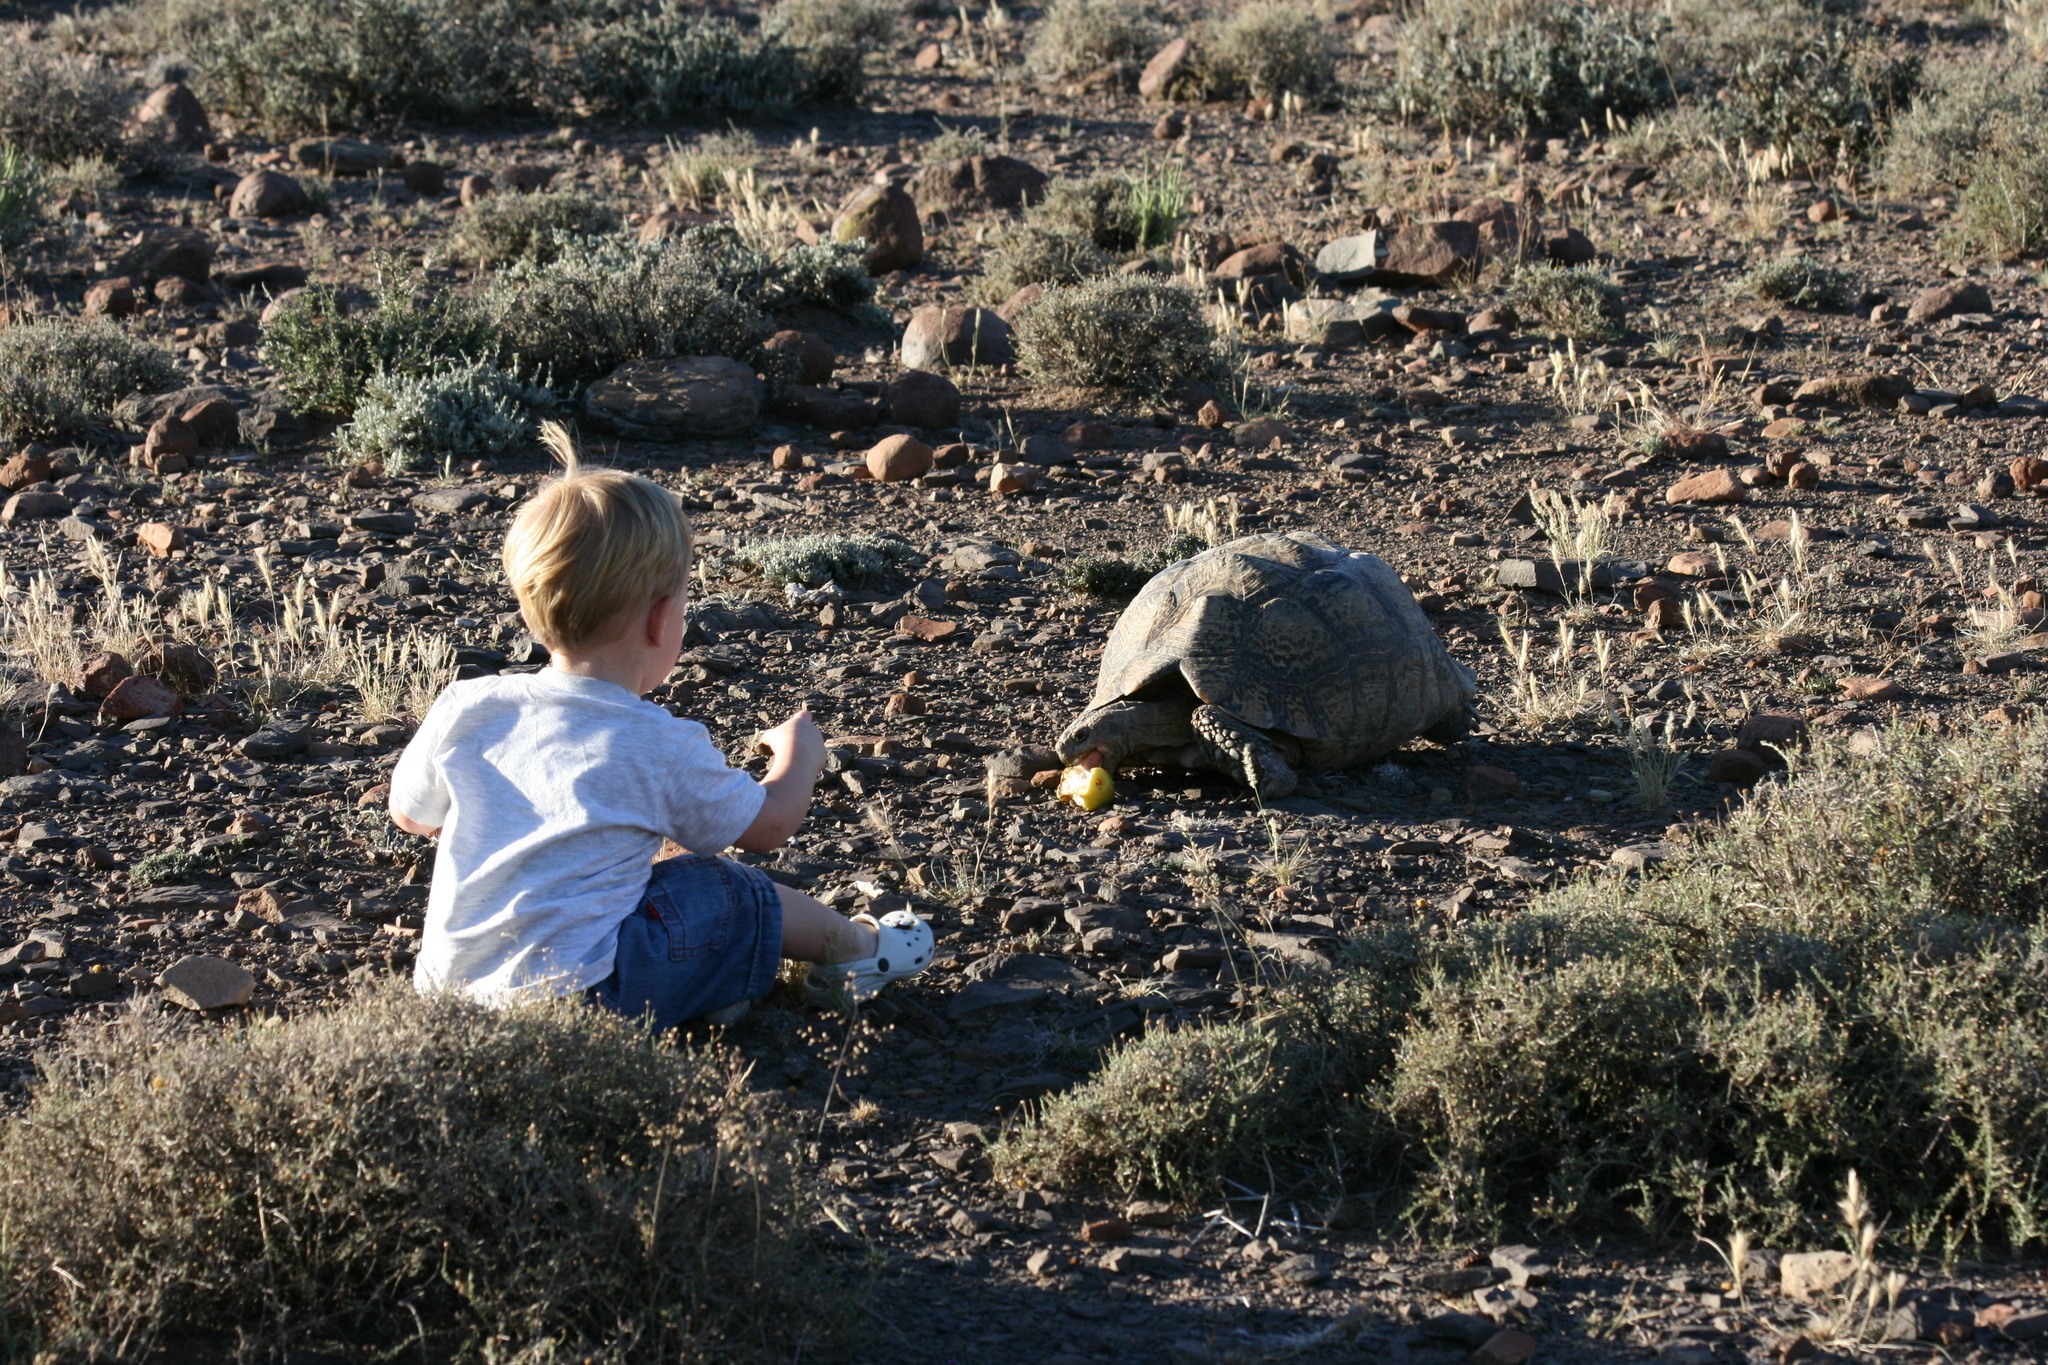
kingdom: Animalia
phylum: Chordata
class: Testudines
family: Testudinidae
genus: Stigmochelys
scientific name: Stigmochelys pardalis
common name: Leopard tortoise
